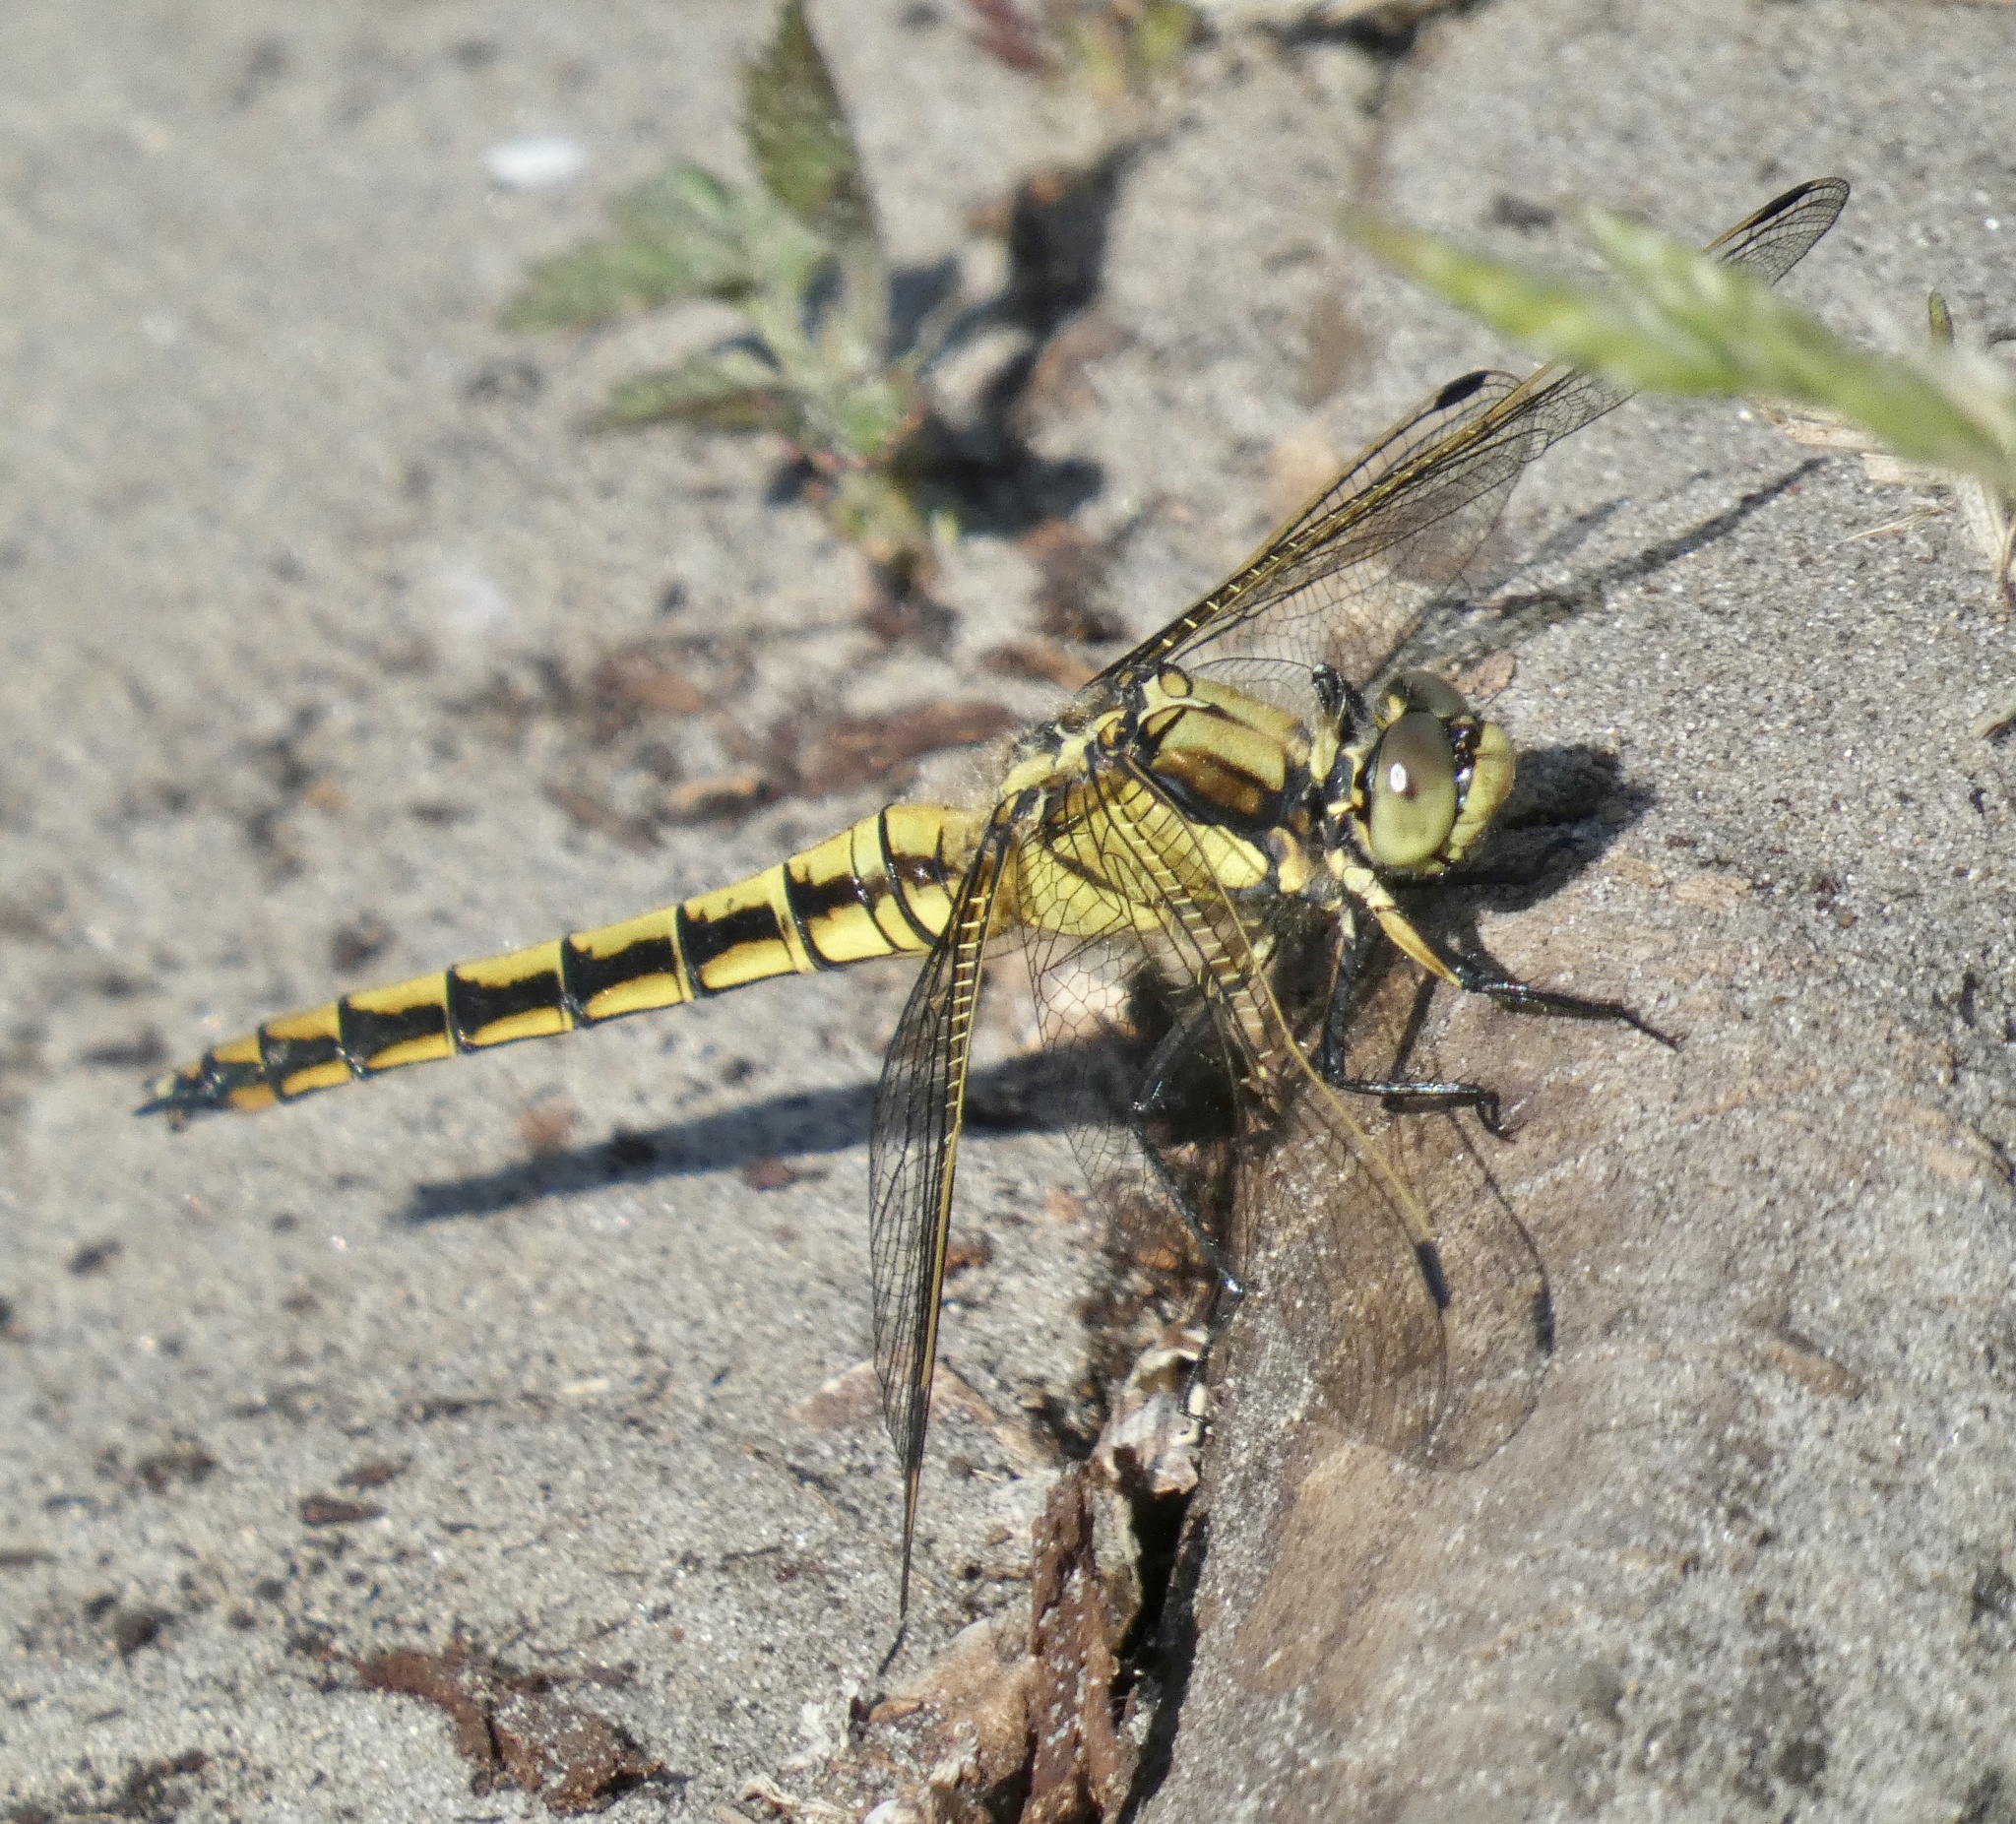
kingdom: Animalia
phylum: Arthropoda
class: Insecta
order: Odonata
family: Libellulidae
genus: Orthetrum
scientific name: Orthetrum cancellatum
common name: Black-tailed skimmer
